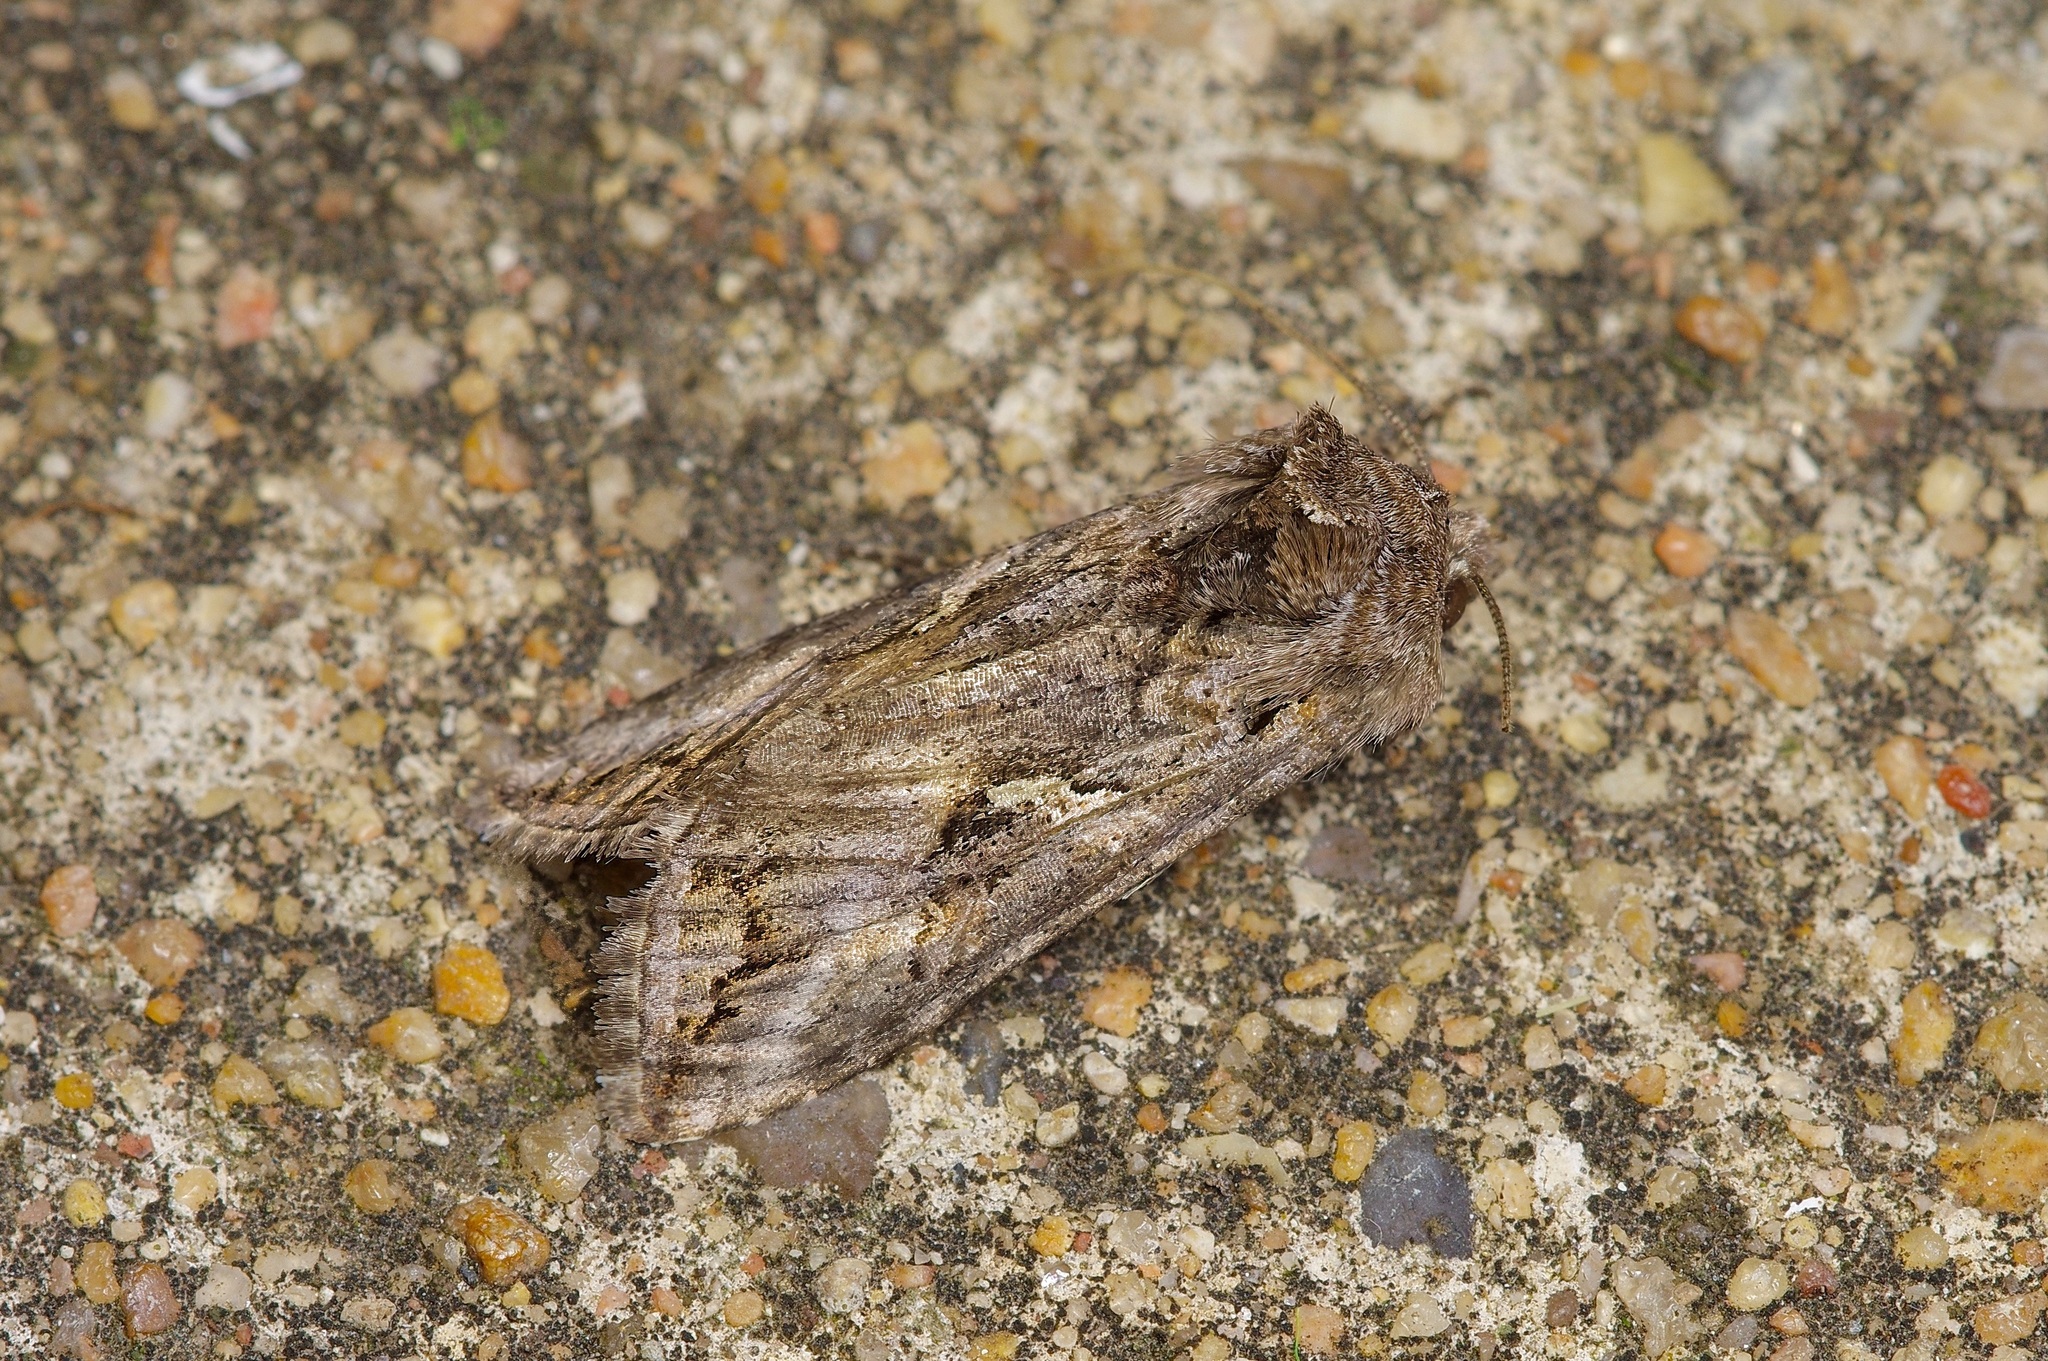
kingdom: Animalia
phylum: Arthropoda
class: Insecta
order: Lepidoptera
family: Noctuidae
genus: Rachiplusia
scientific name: Rachiplusia ou
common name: Gray looper moth
